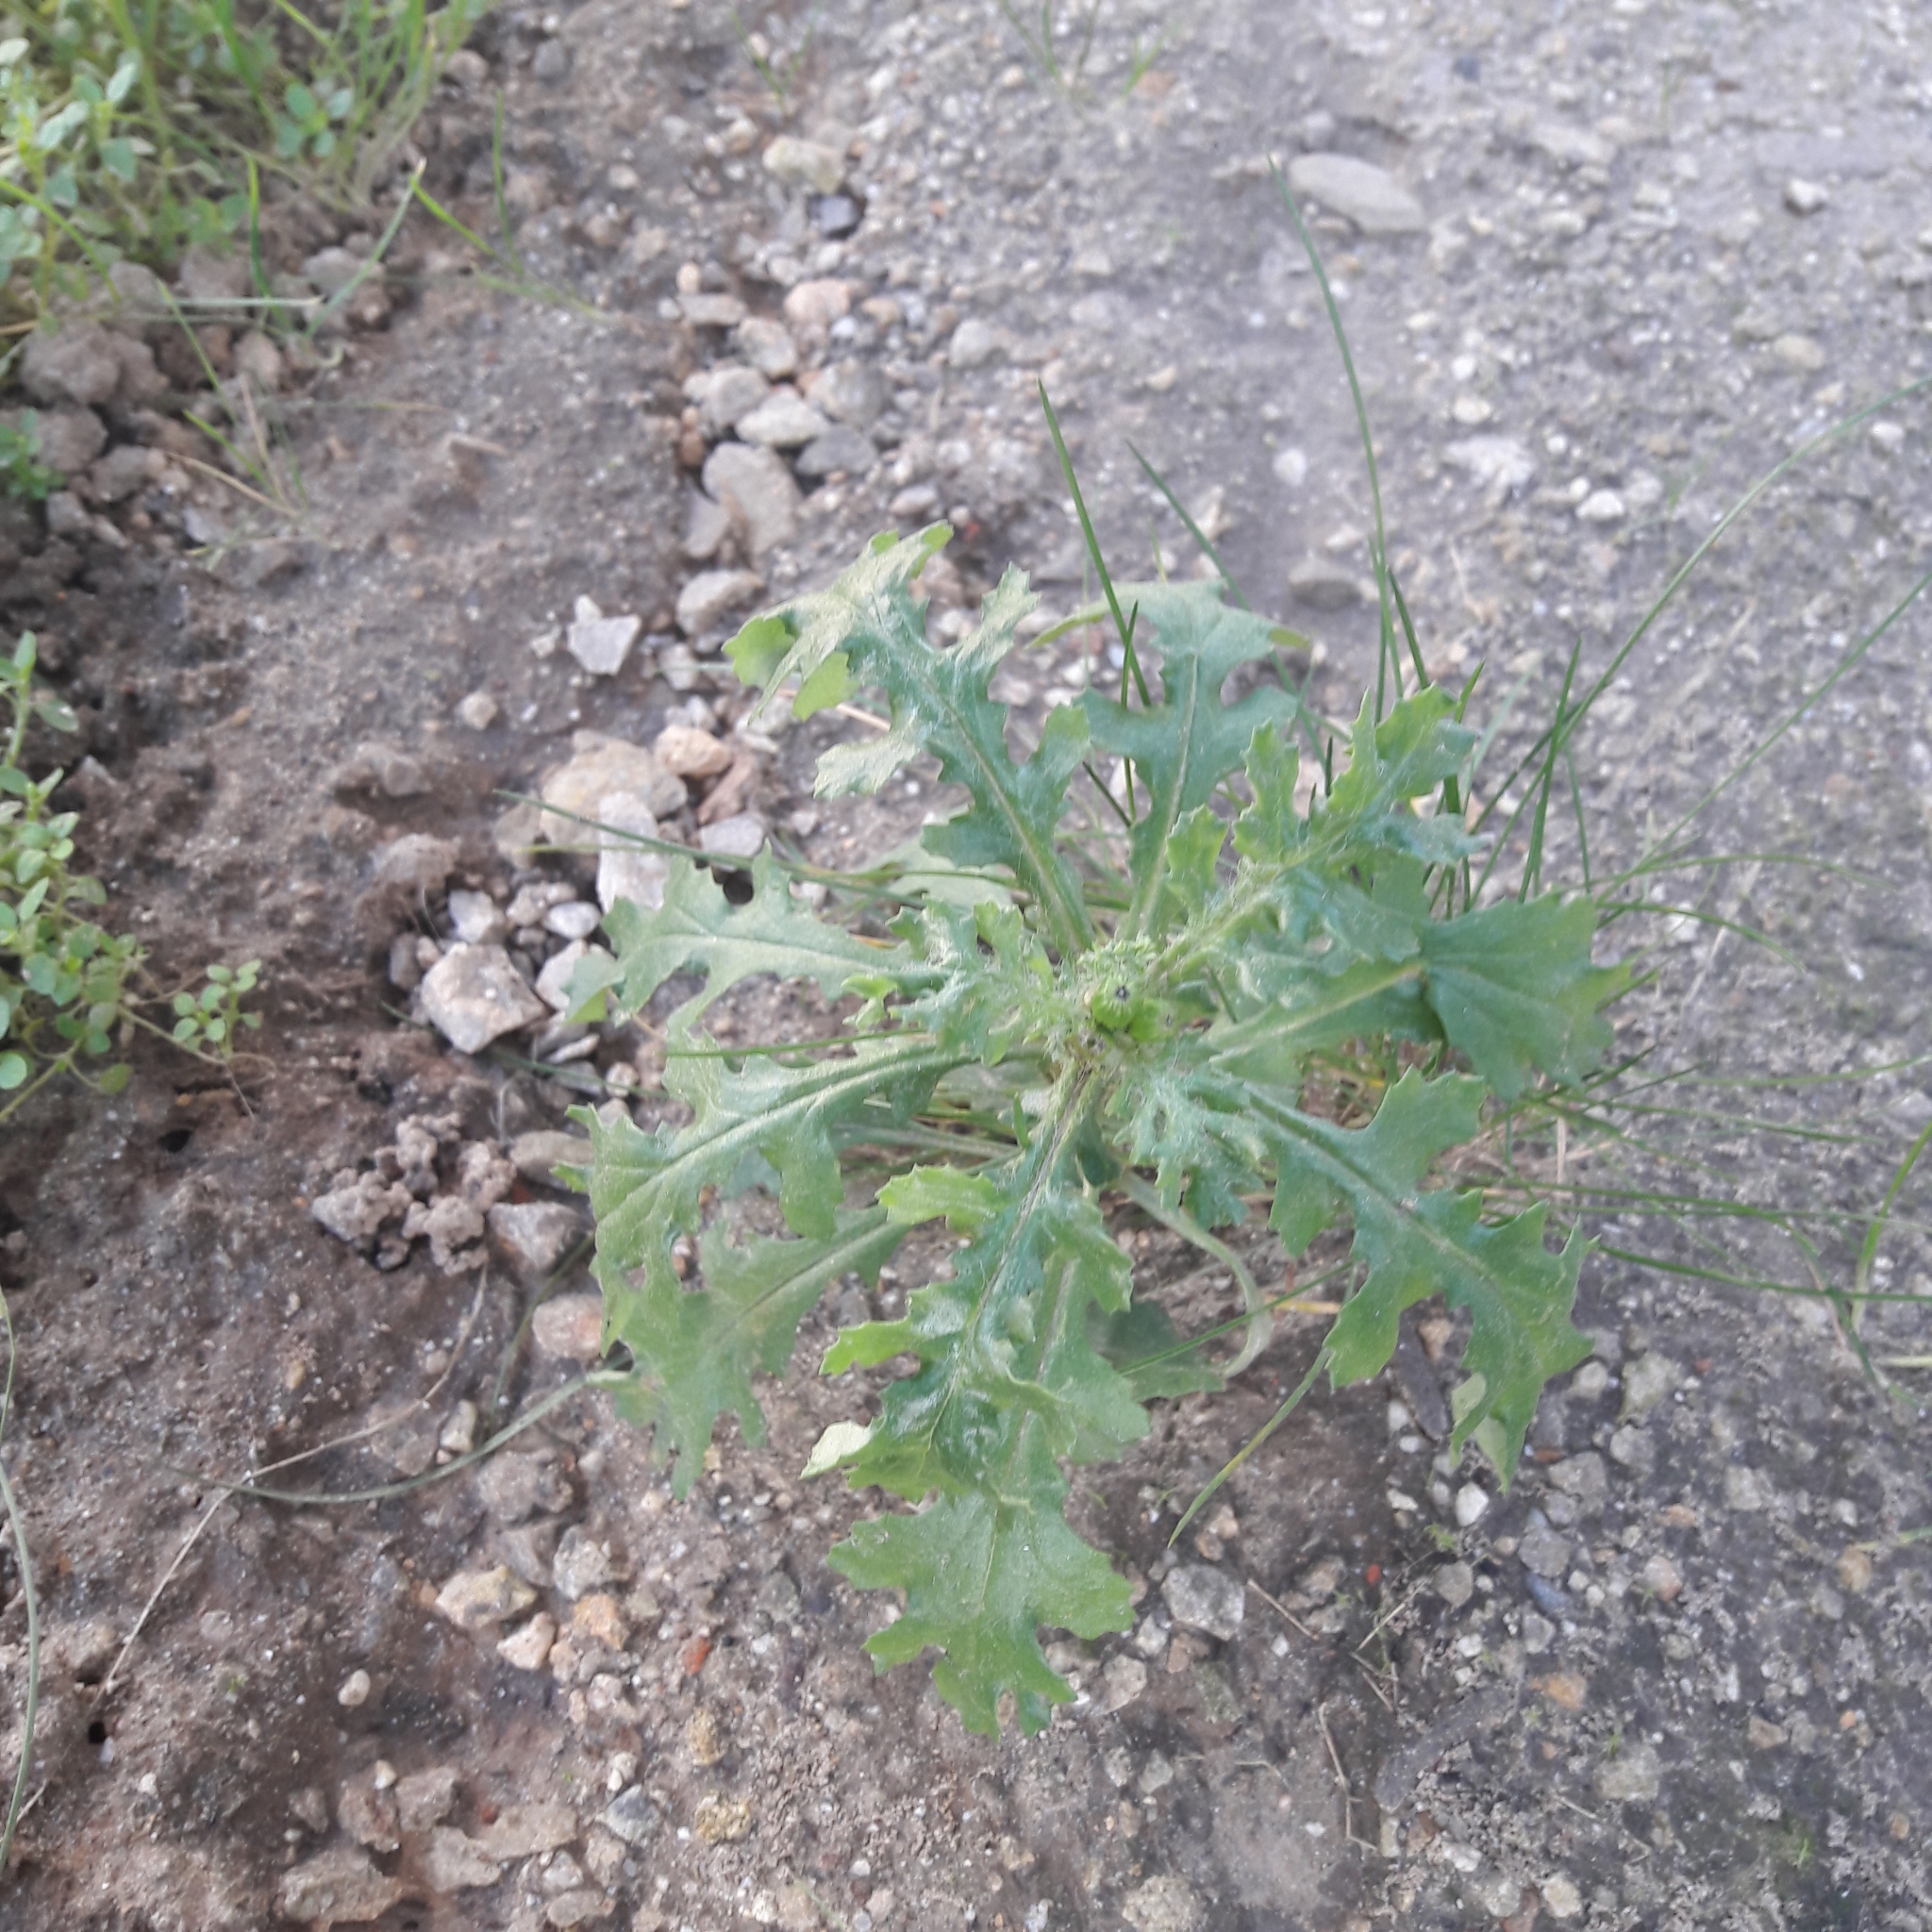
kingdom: Plantae
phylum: Tracheophyta
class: Magnoliopsida
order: Asterales
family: Asteraceae
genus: Senecio
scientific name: Senecio vulgaris
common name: Old-man-in-the-spring
